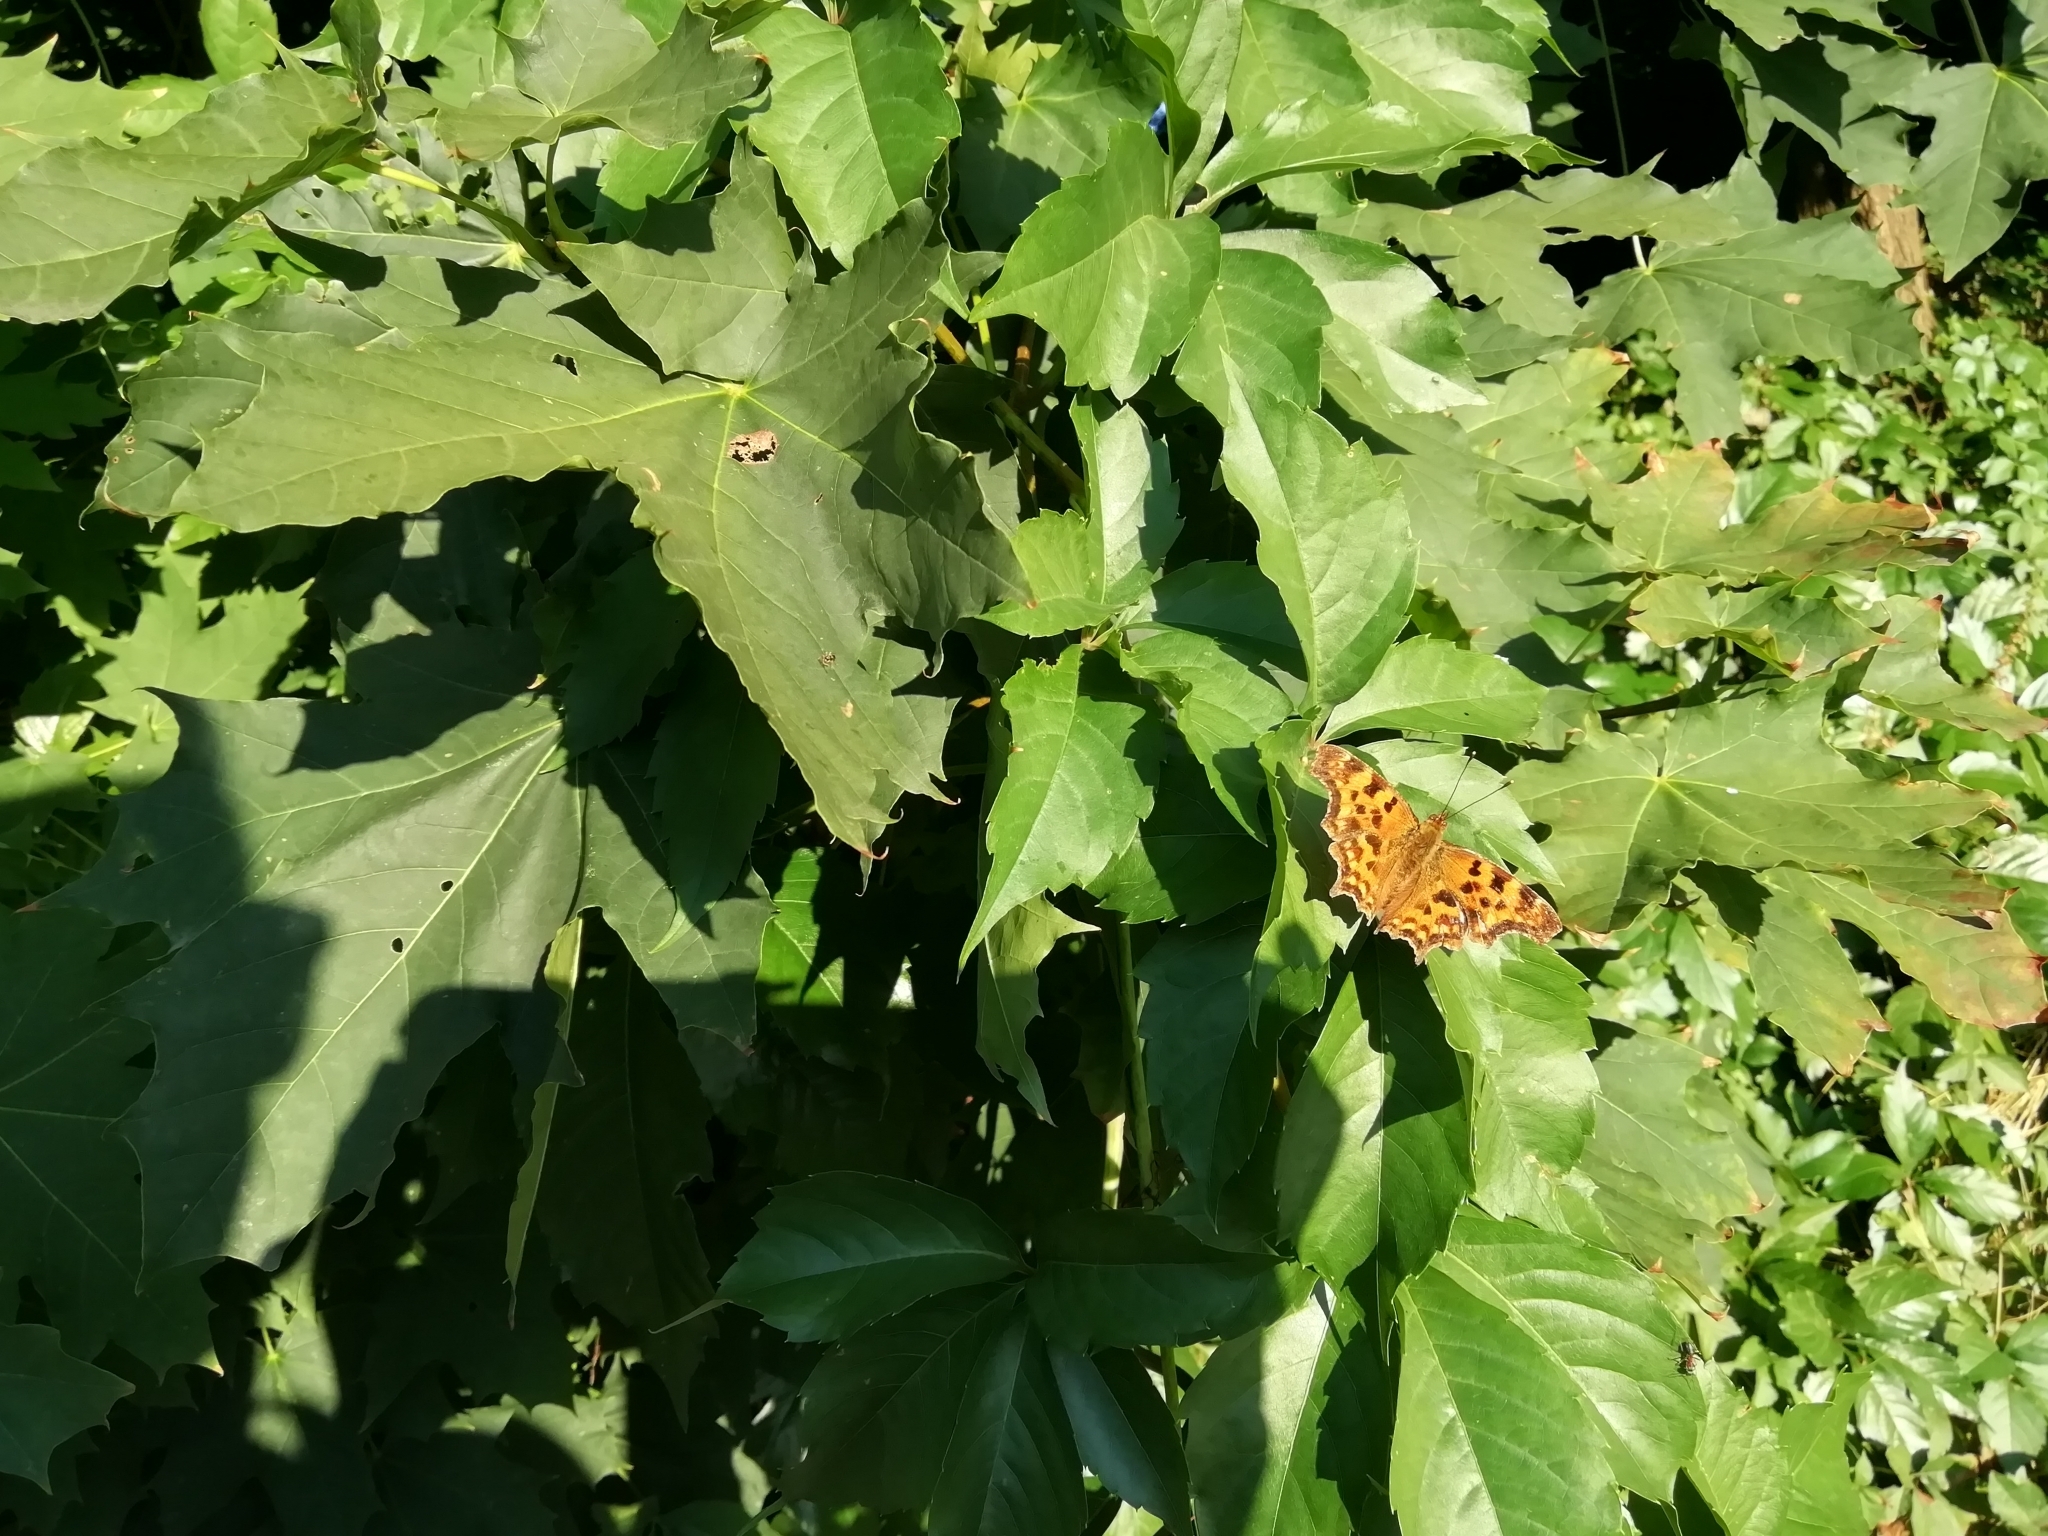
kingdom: Animalia
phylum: Arthropoda
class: Insecta
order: Lepidoptera
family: Nymphalidae
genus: Polygonia
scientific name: Polygonia c-album
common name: Comma
